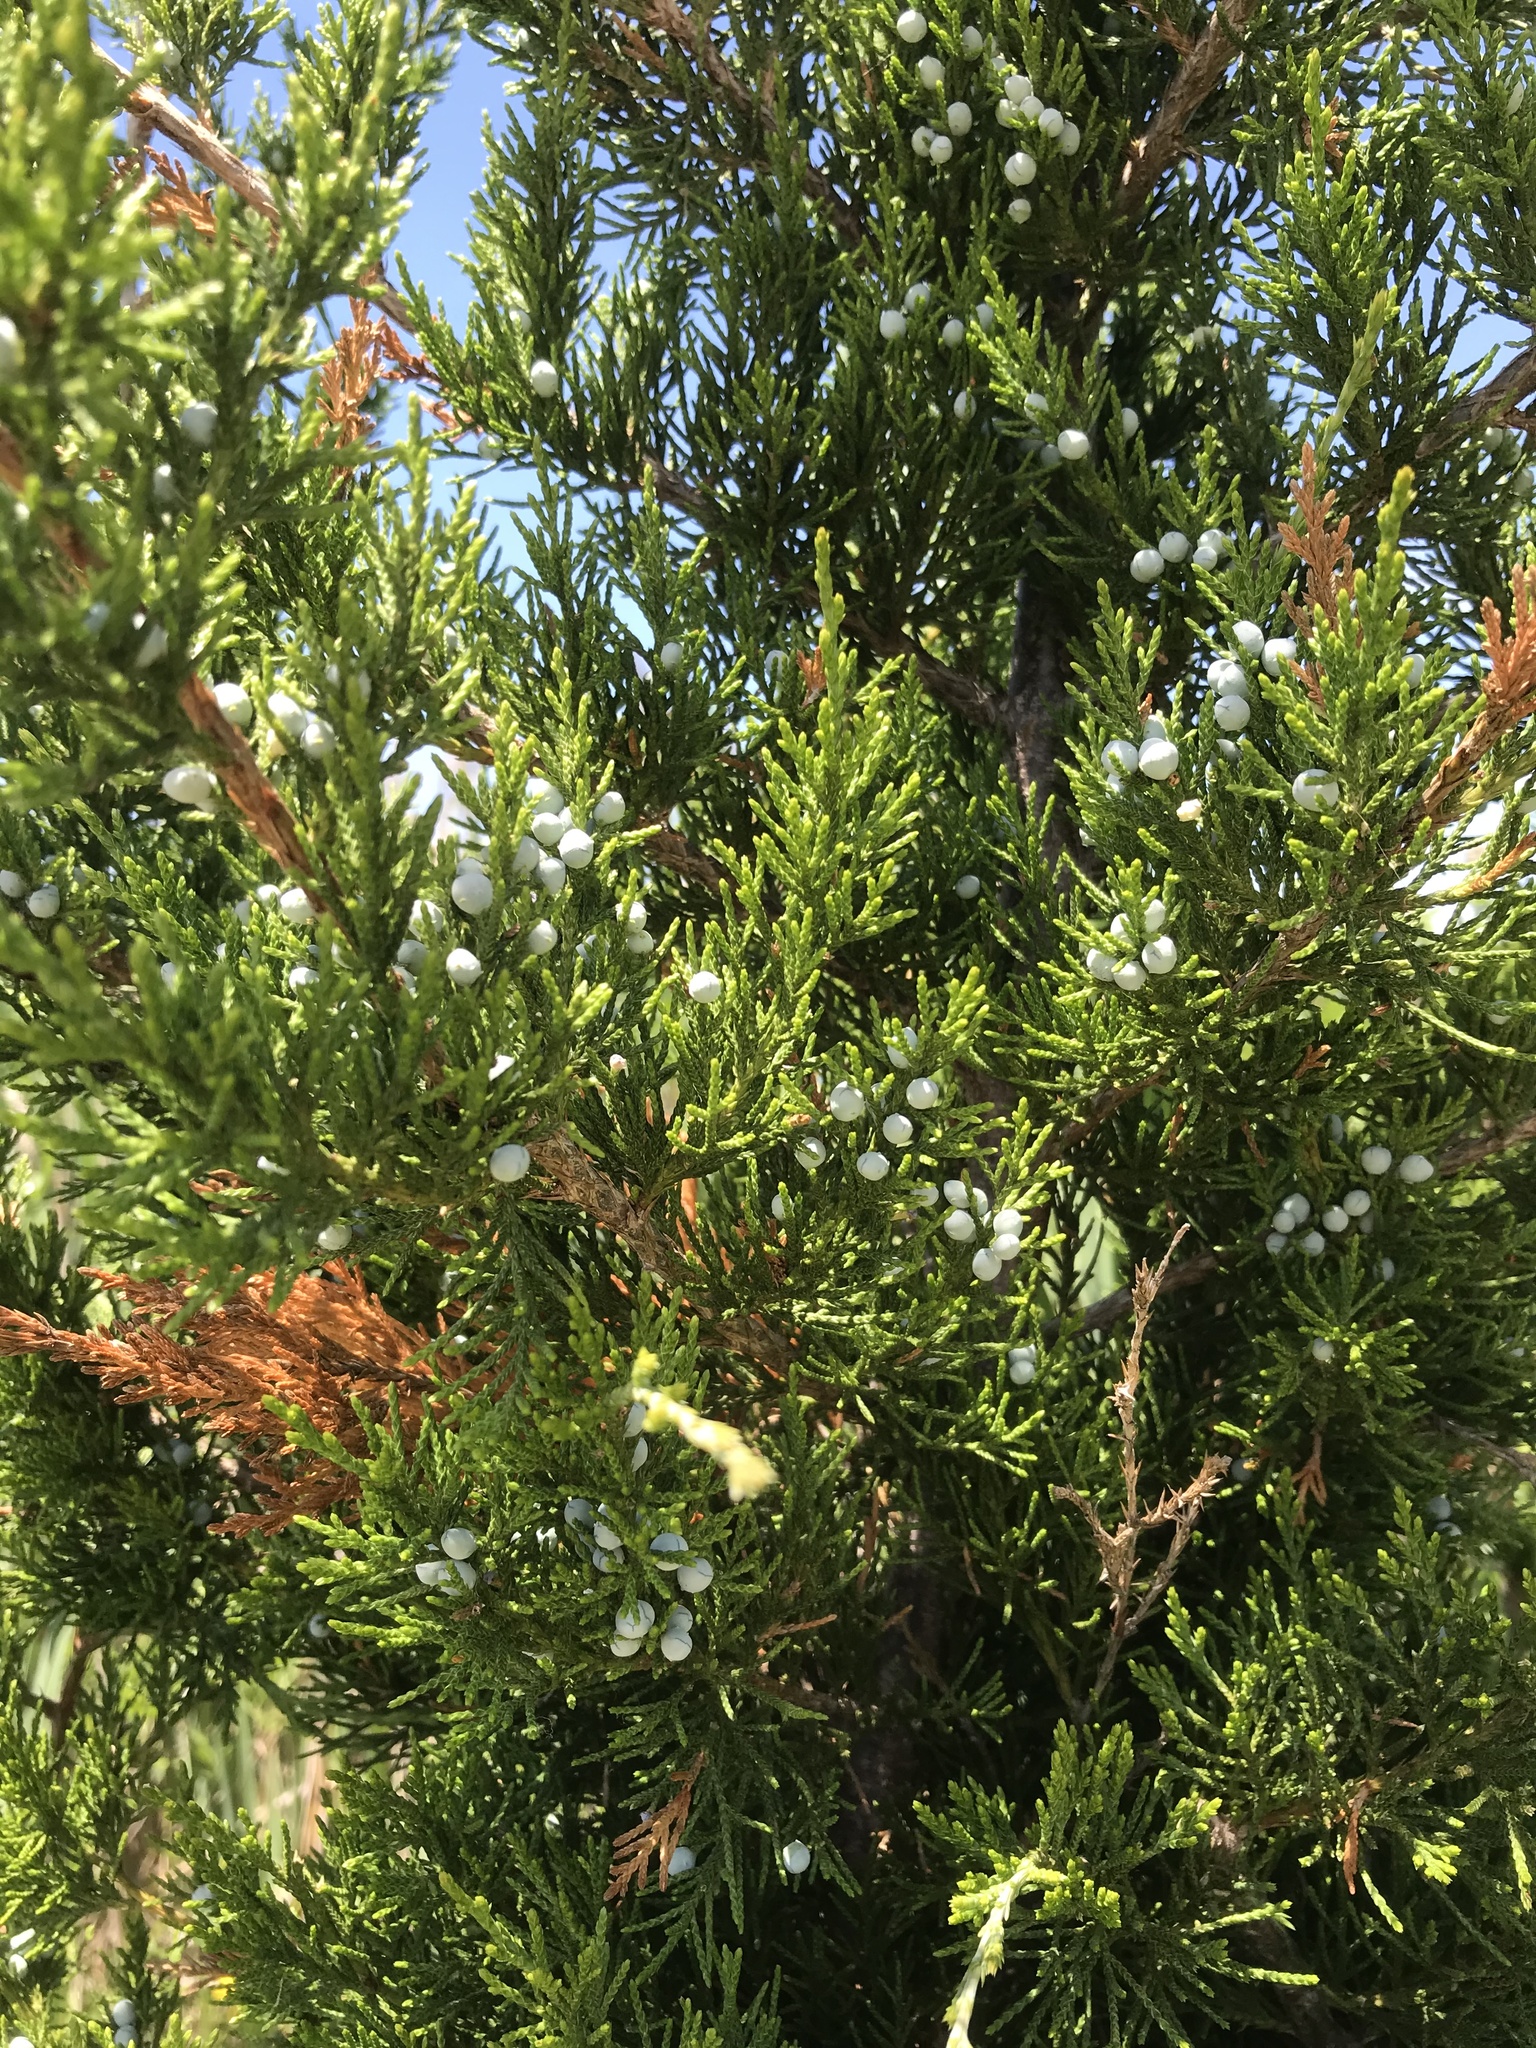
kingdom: Plantae
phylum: Tracheophyta
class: Pinopsida
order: Pinales
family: Cupressaceae
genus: Juniperus
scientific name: Juniperus virginiana
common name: Red juniper
